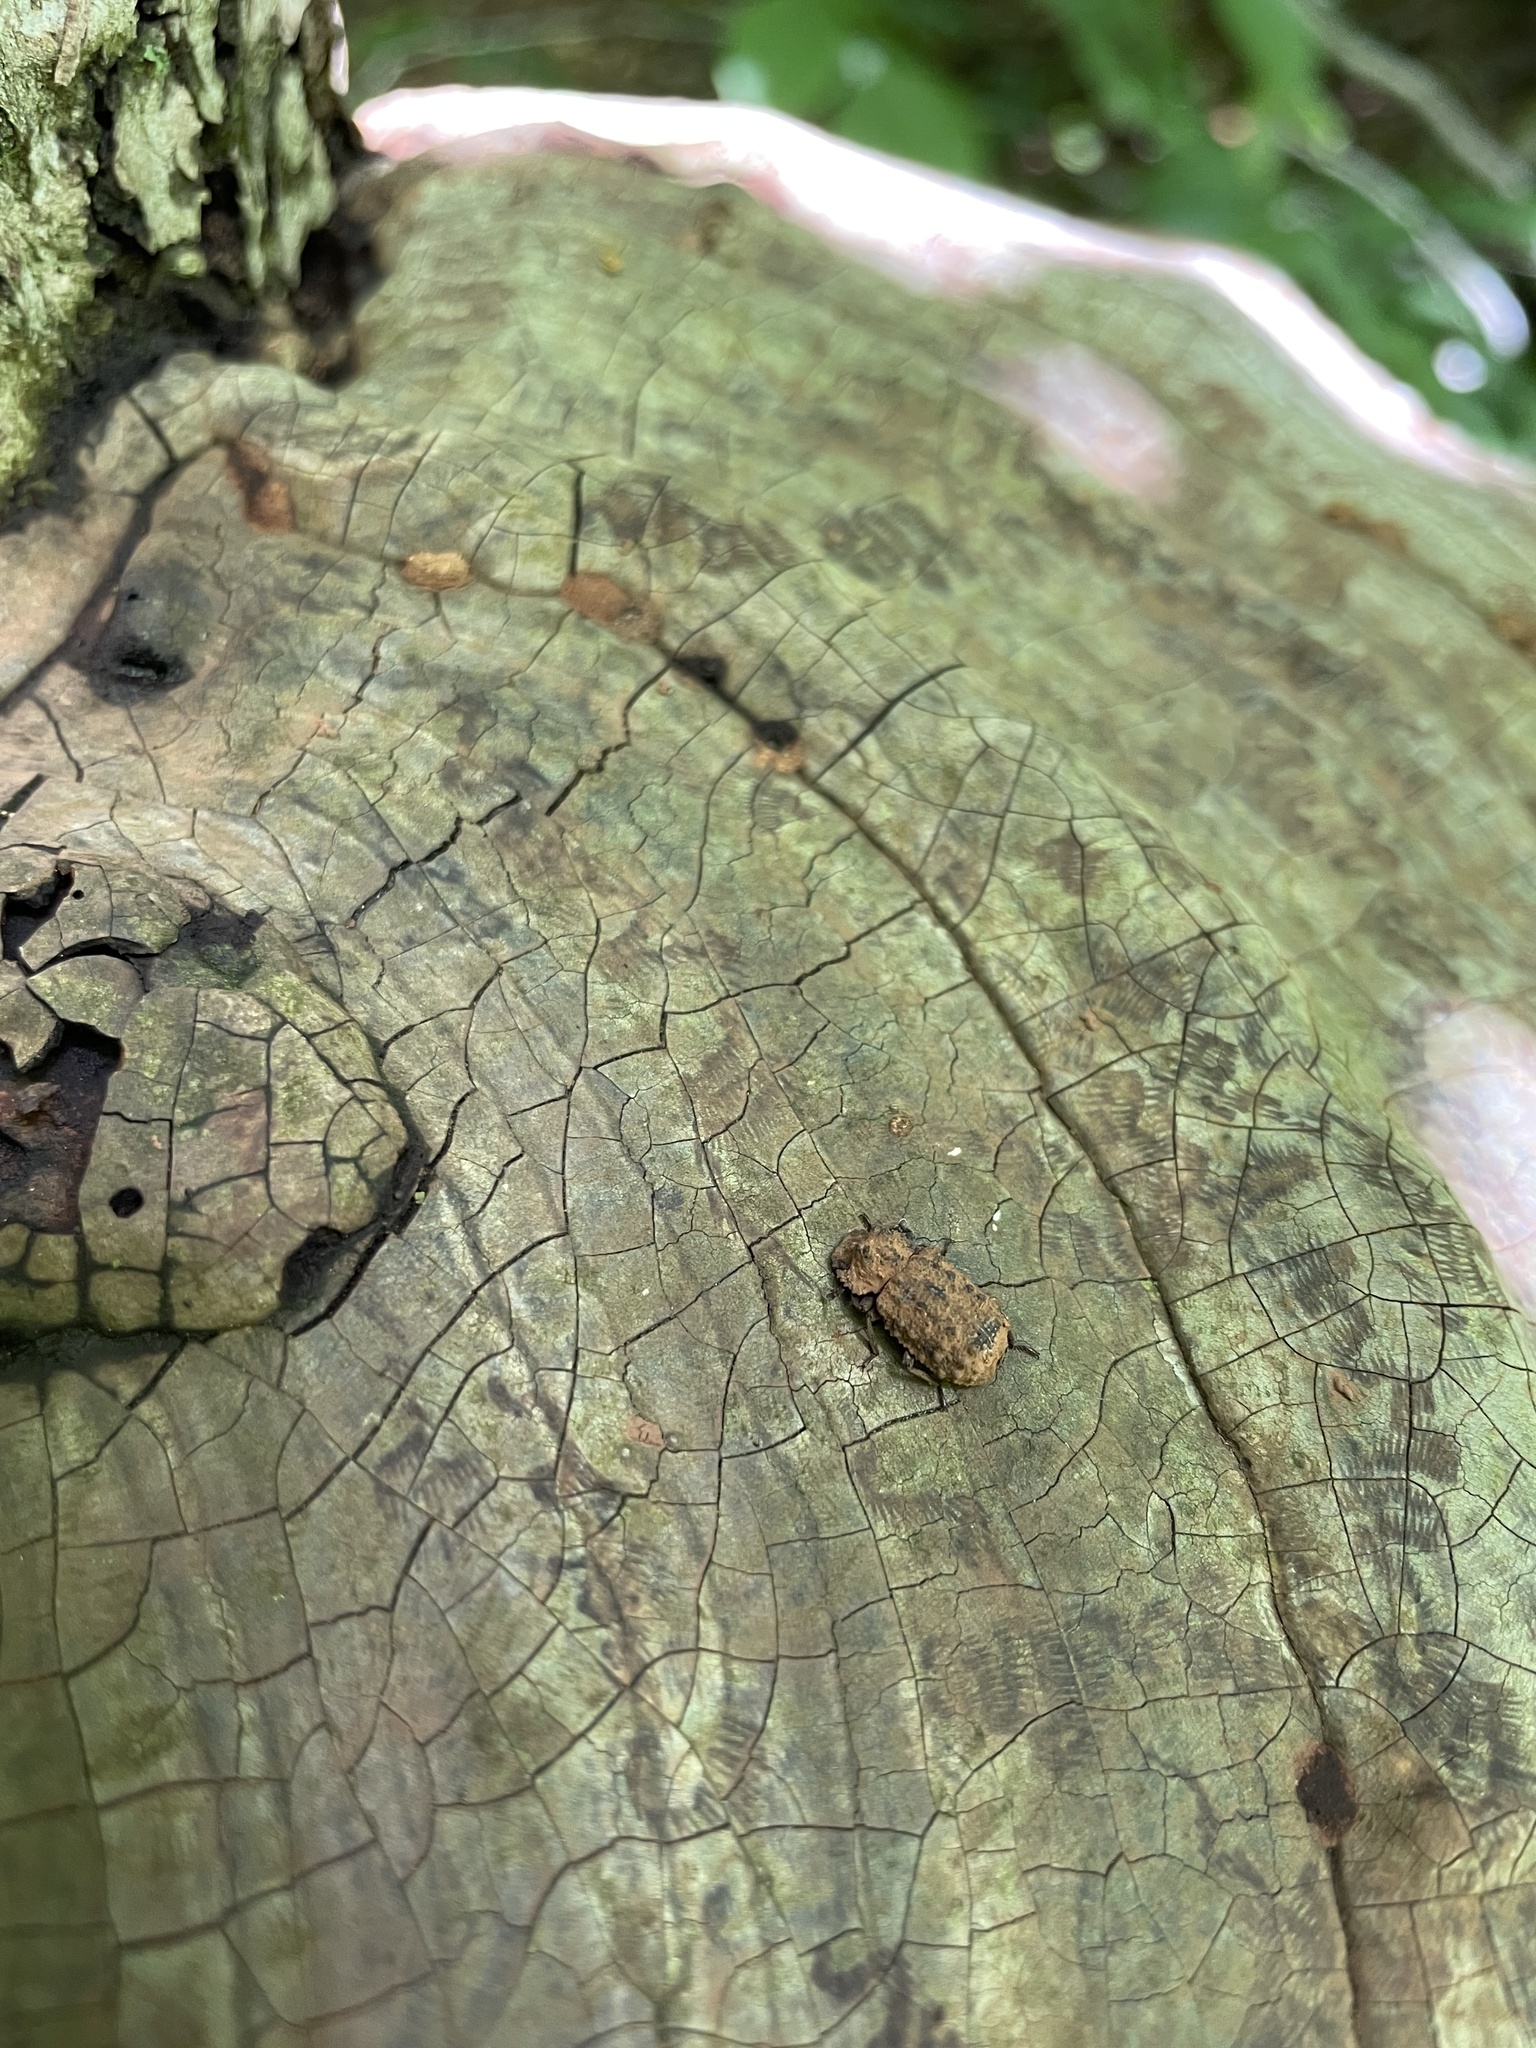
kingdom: Animalia
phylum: Arthropoda
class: Insecta
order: Coleoptera
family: Tenebrionidae
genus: Gnatocerus
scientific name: Gnatocerus cornutus
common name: Broad-horned flour beetle
